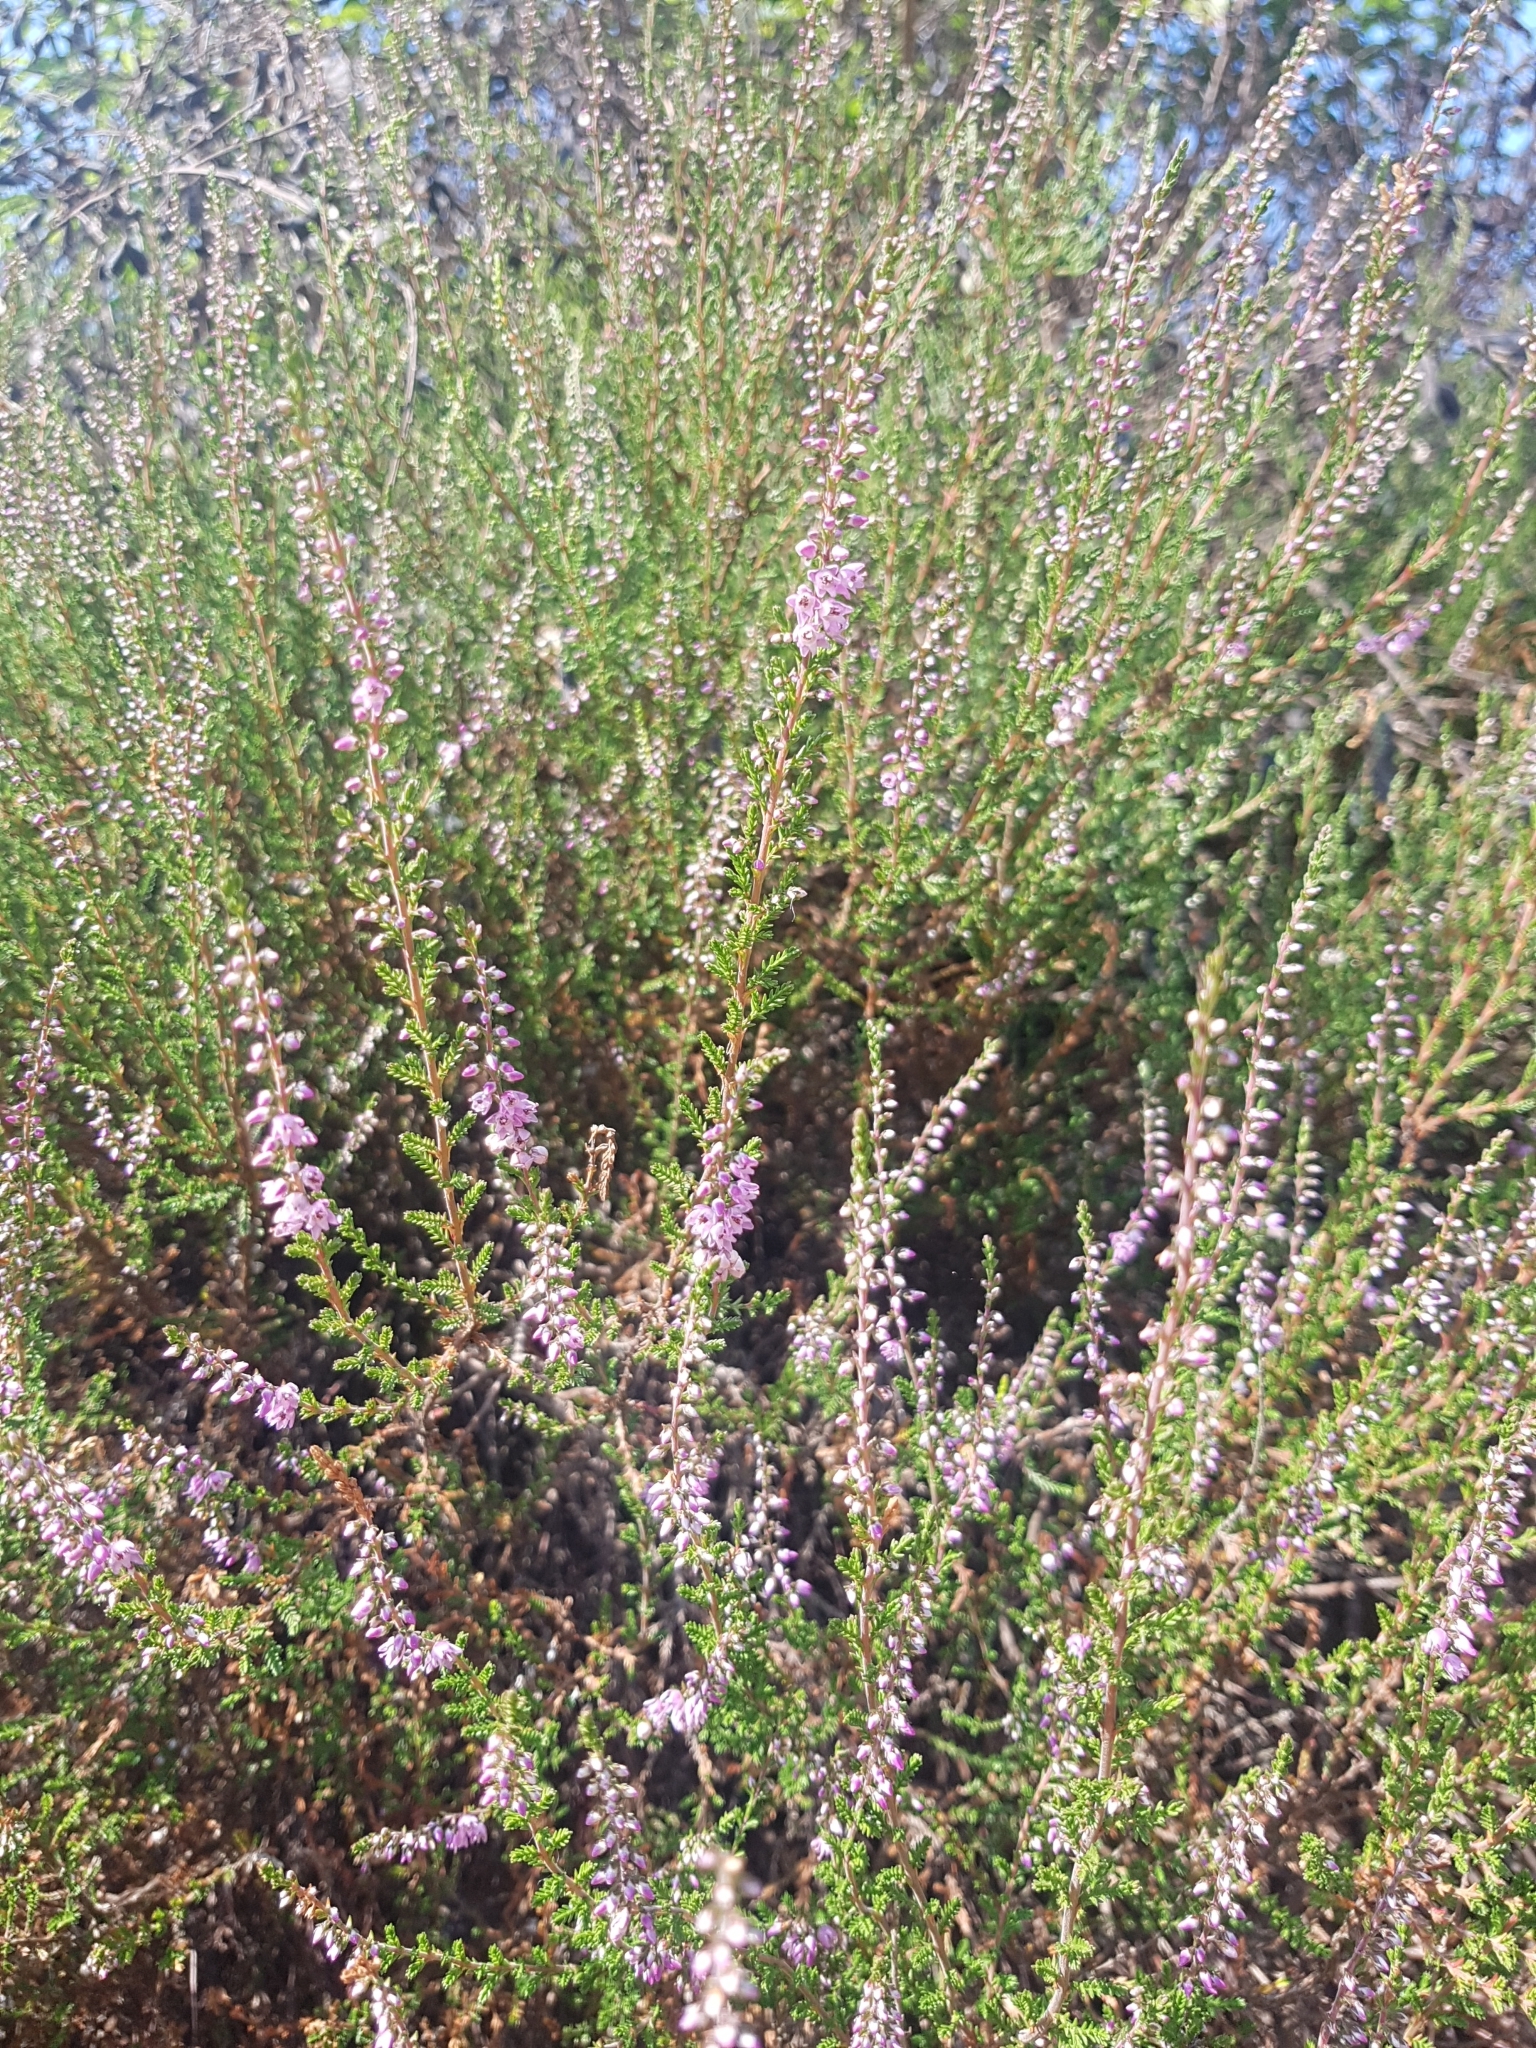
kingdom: Plantae
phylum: Tracheophyta
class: Magnoliopsida
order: Ericales
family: Ericaceae
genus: Calluna
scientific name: Calluna vulgaris
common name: Heather
